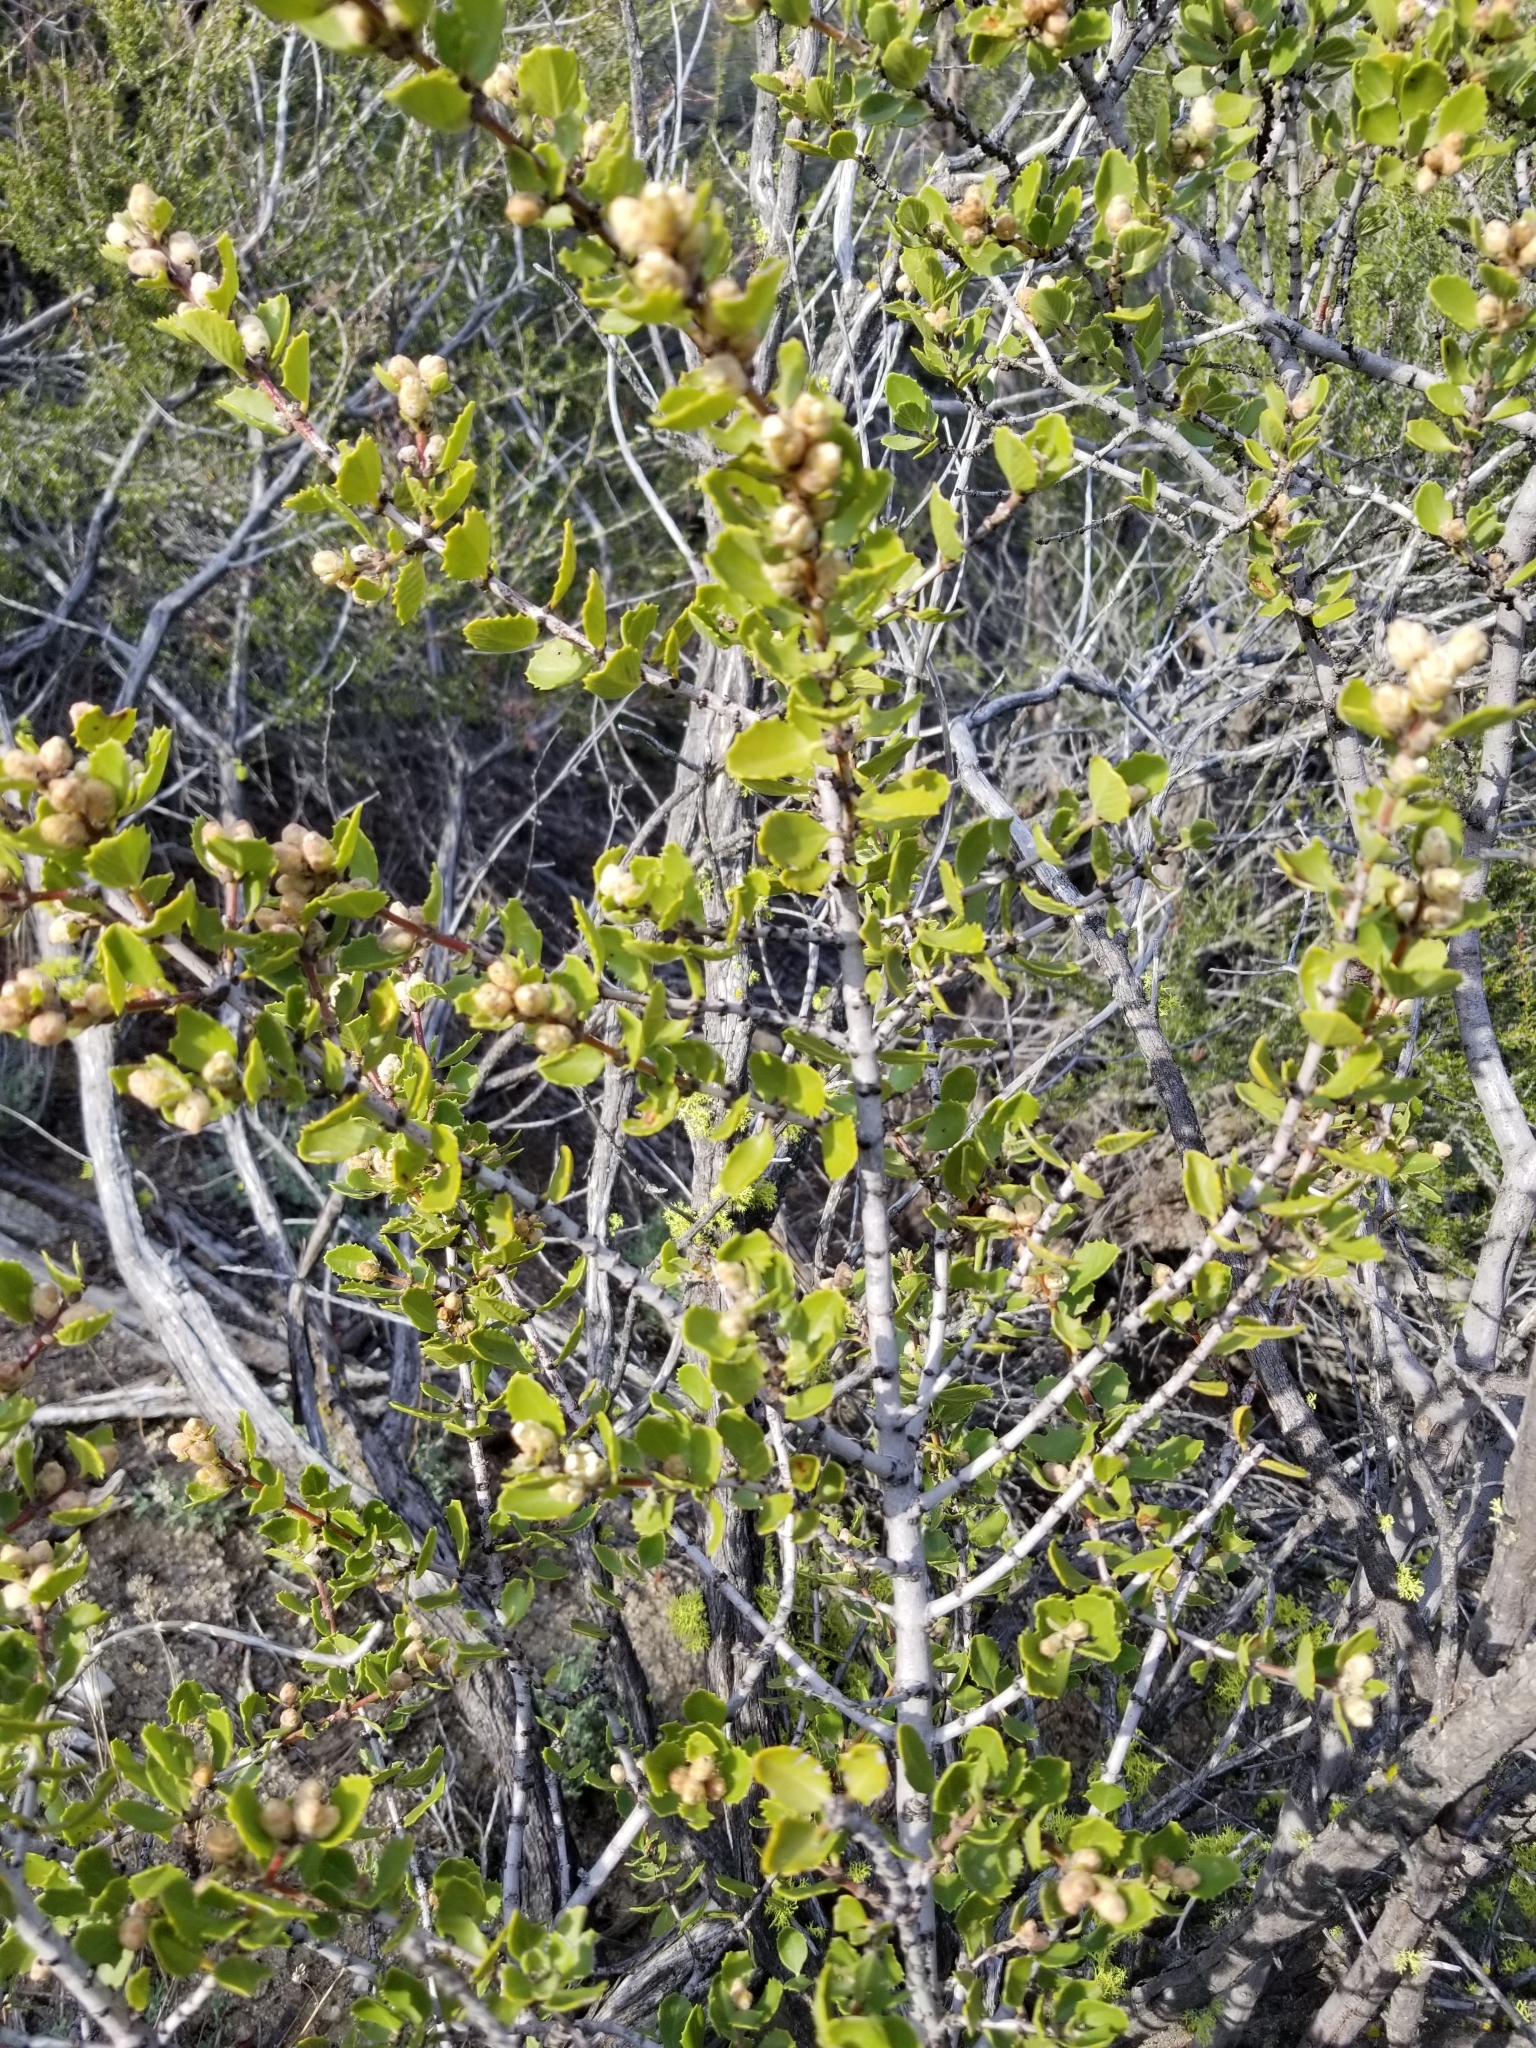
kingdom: Plantae
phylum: Tracheophyta
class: Magnoliopsida
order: Rosales
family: Rhamnaceae
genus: Ceanothus
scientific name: Ceanothus perplexans
